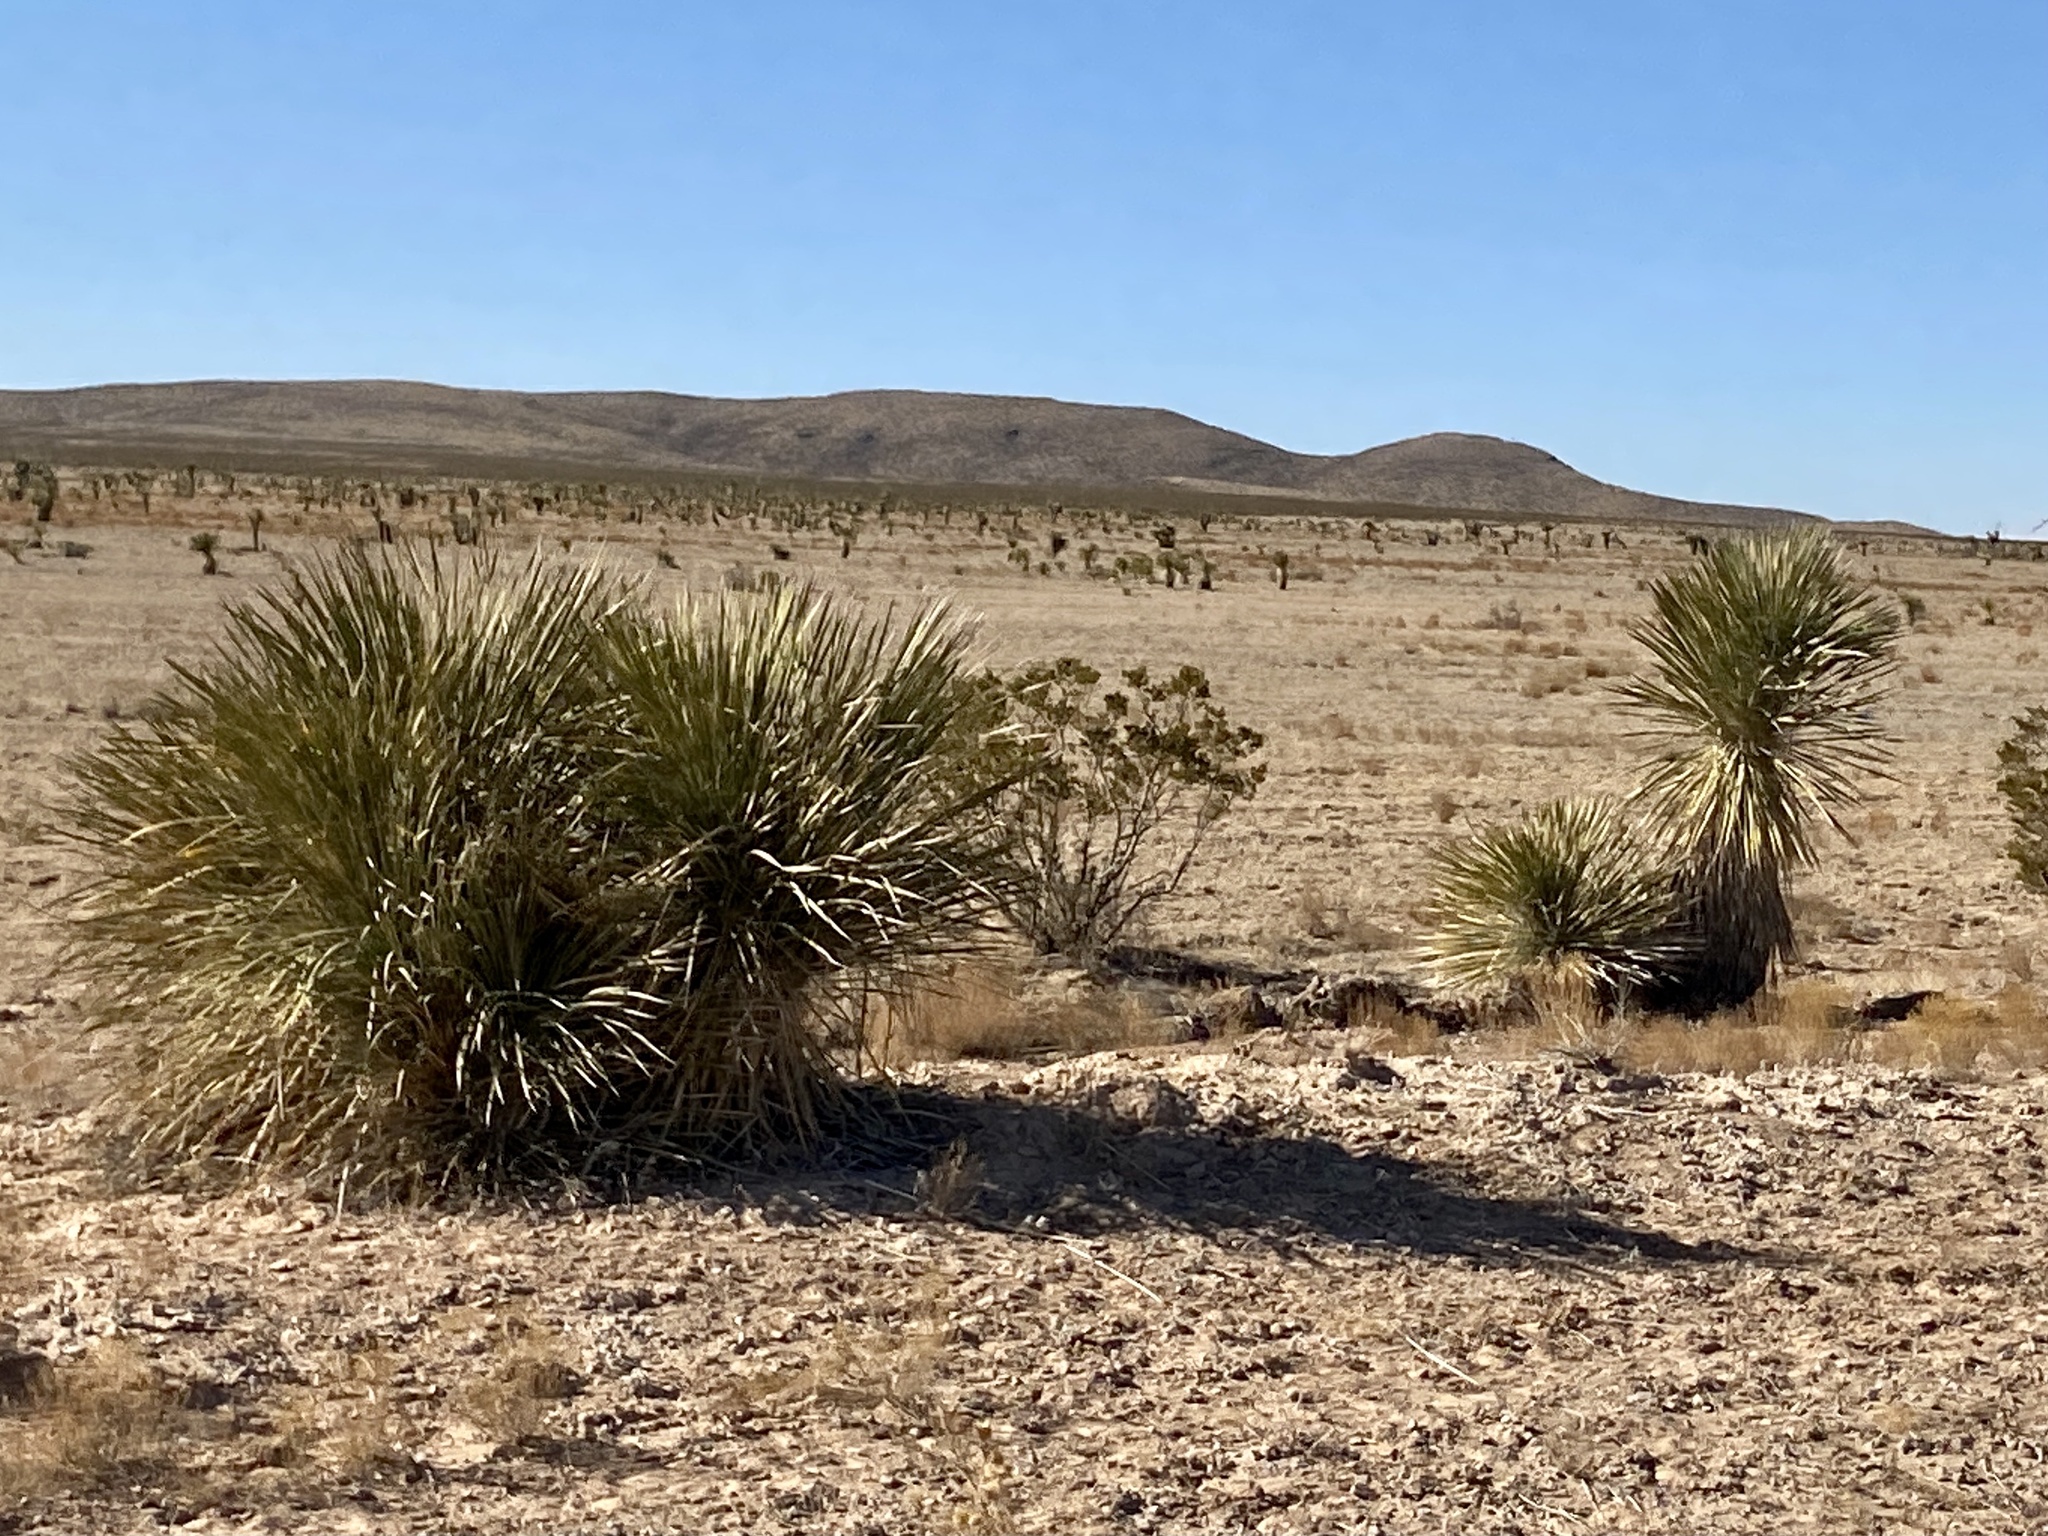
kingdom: Plantae
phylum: Tracheophyta
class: Liliopsida
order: Asparagales
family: Asparagaceae
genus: Yucca
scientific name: Yucca elata
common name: Palmella
